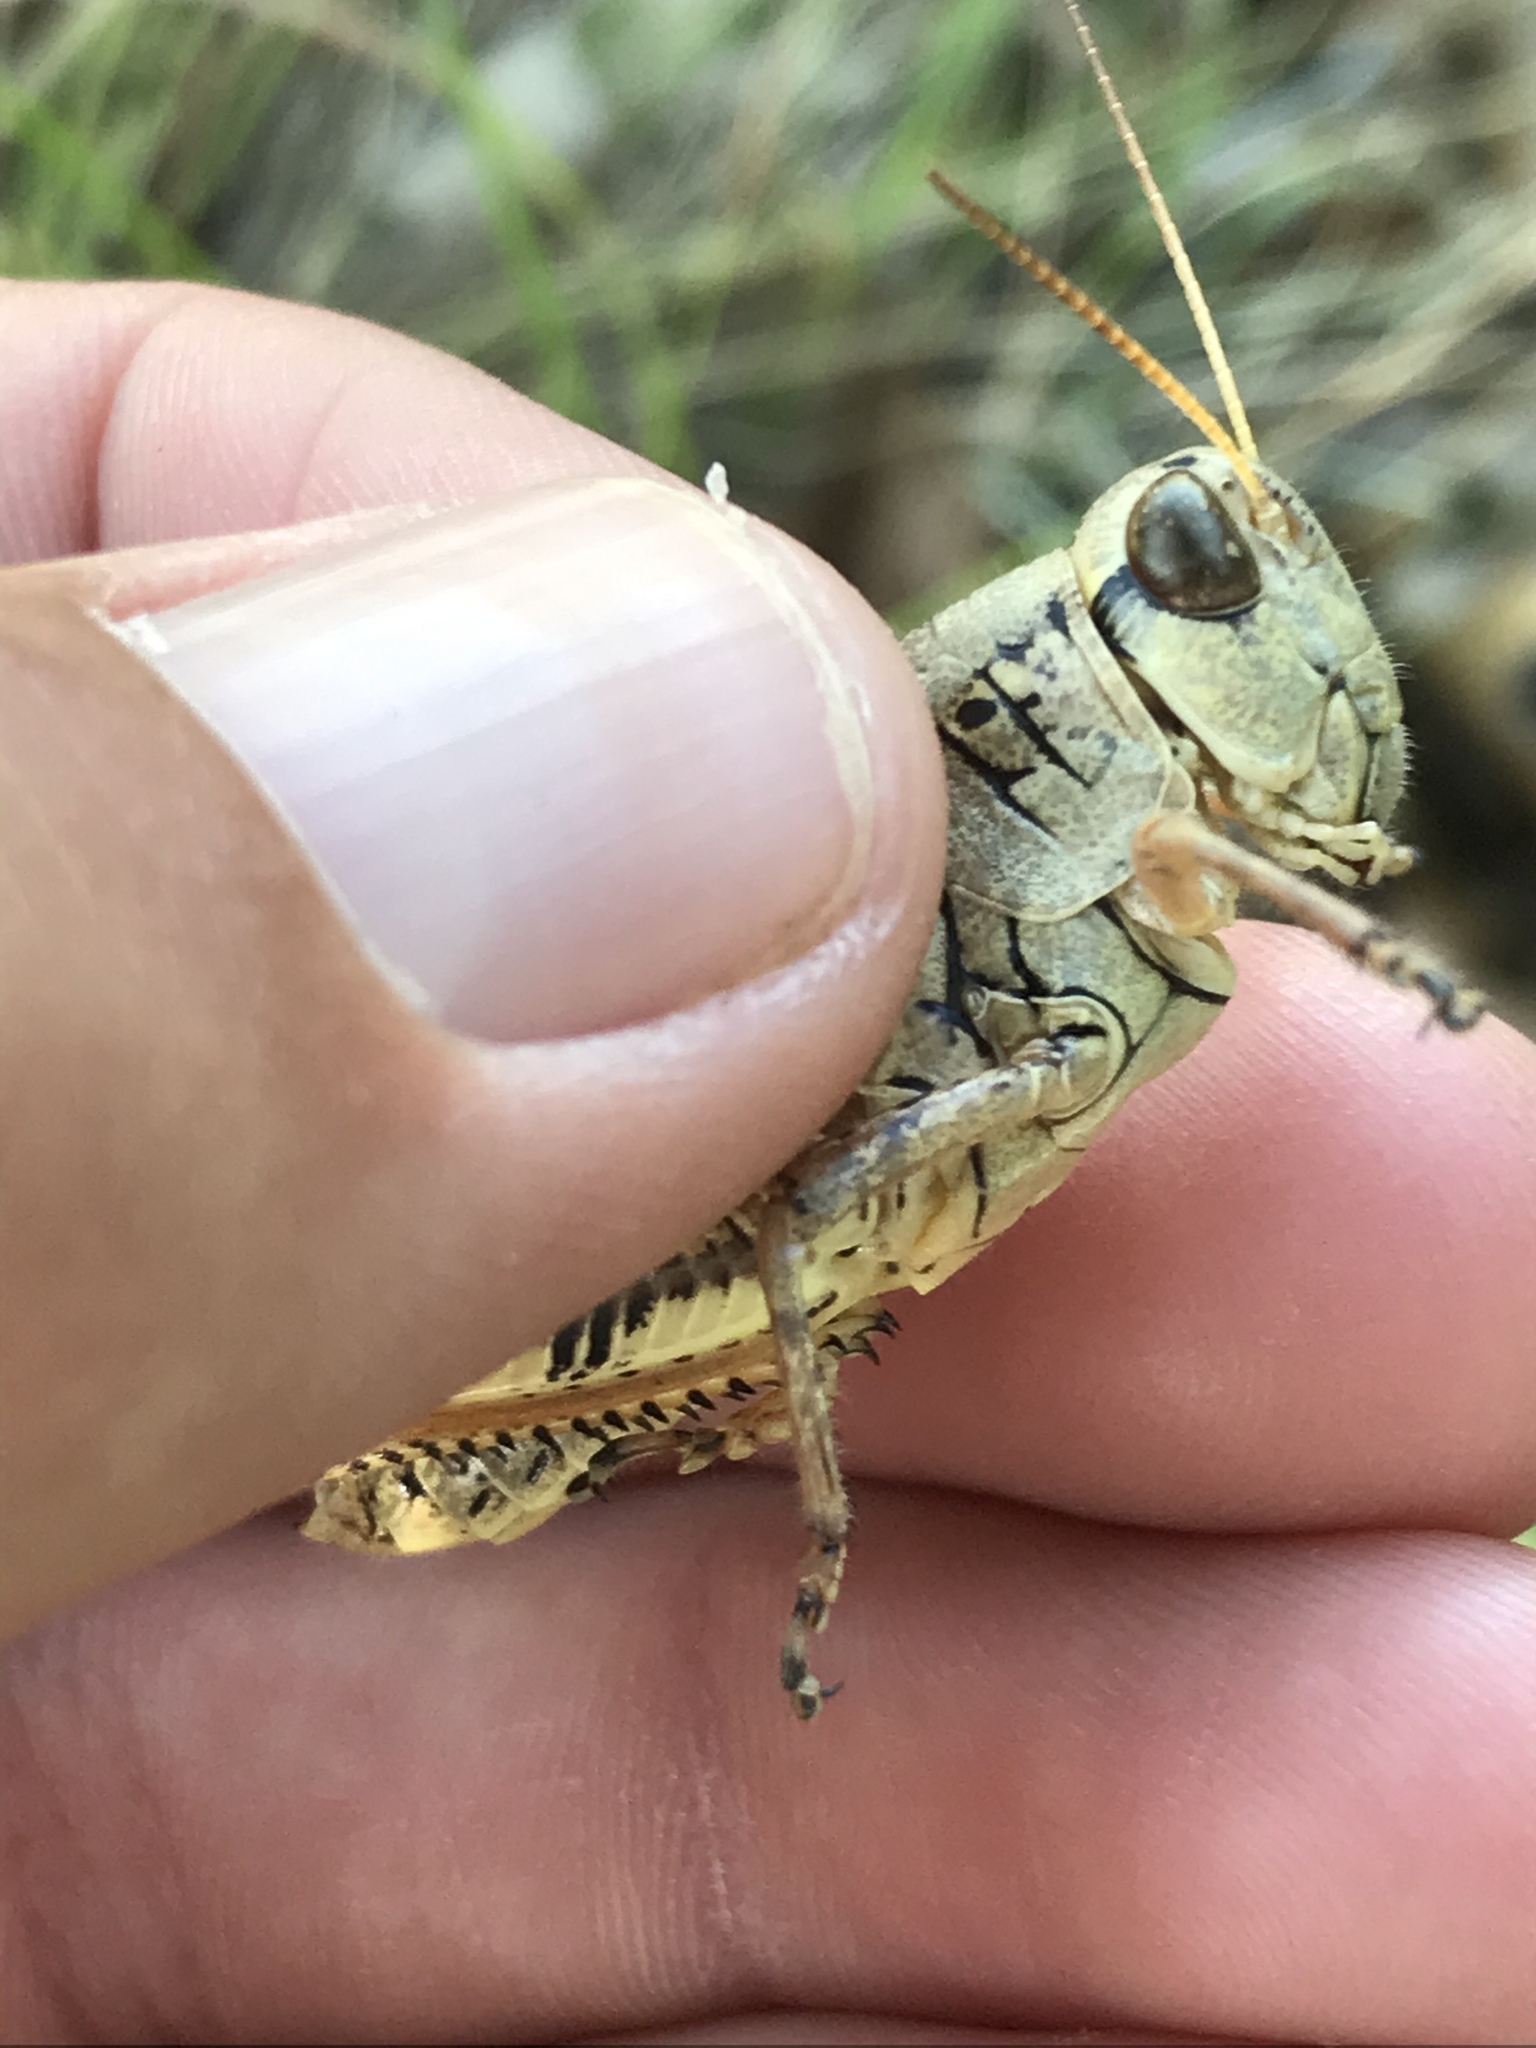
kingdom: Animalia
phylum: Arthropoda
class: Insecta
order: Orthoptera
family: Acrididae
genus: Melanoplus
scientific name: Melanoplus ponderosus
